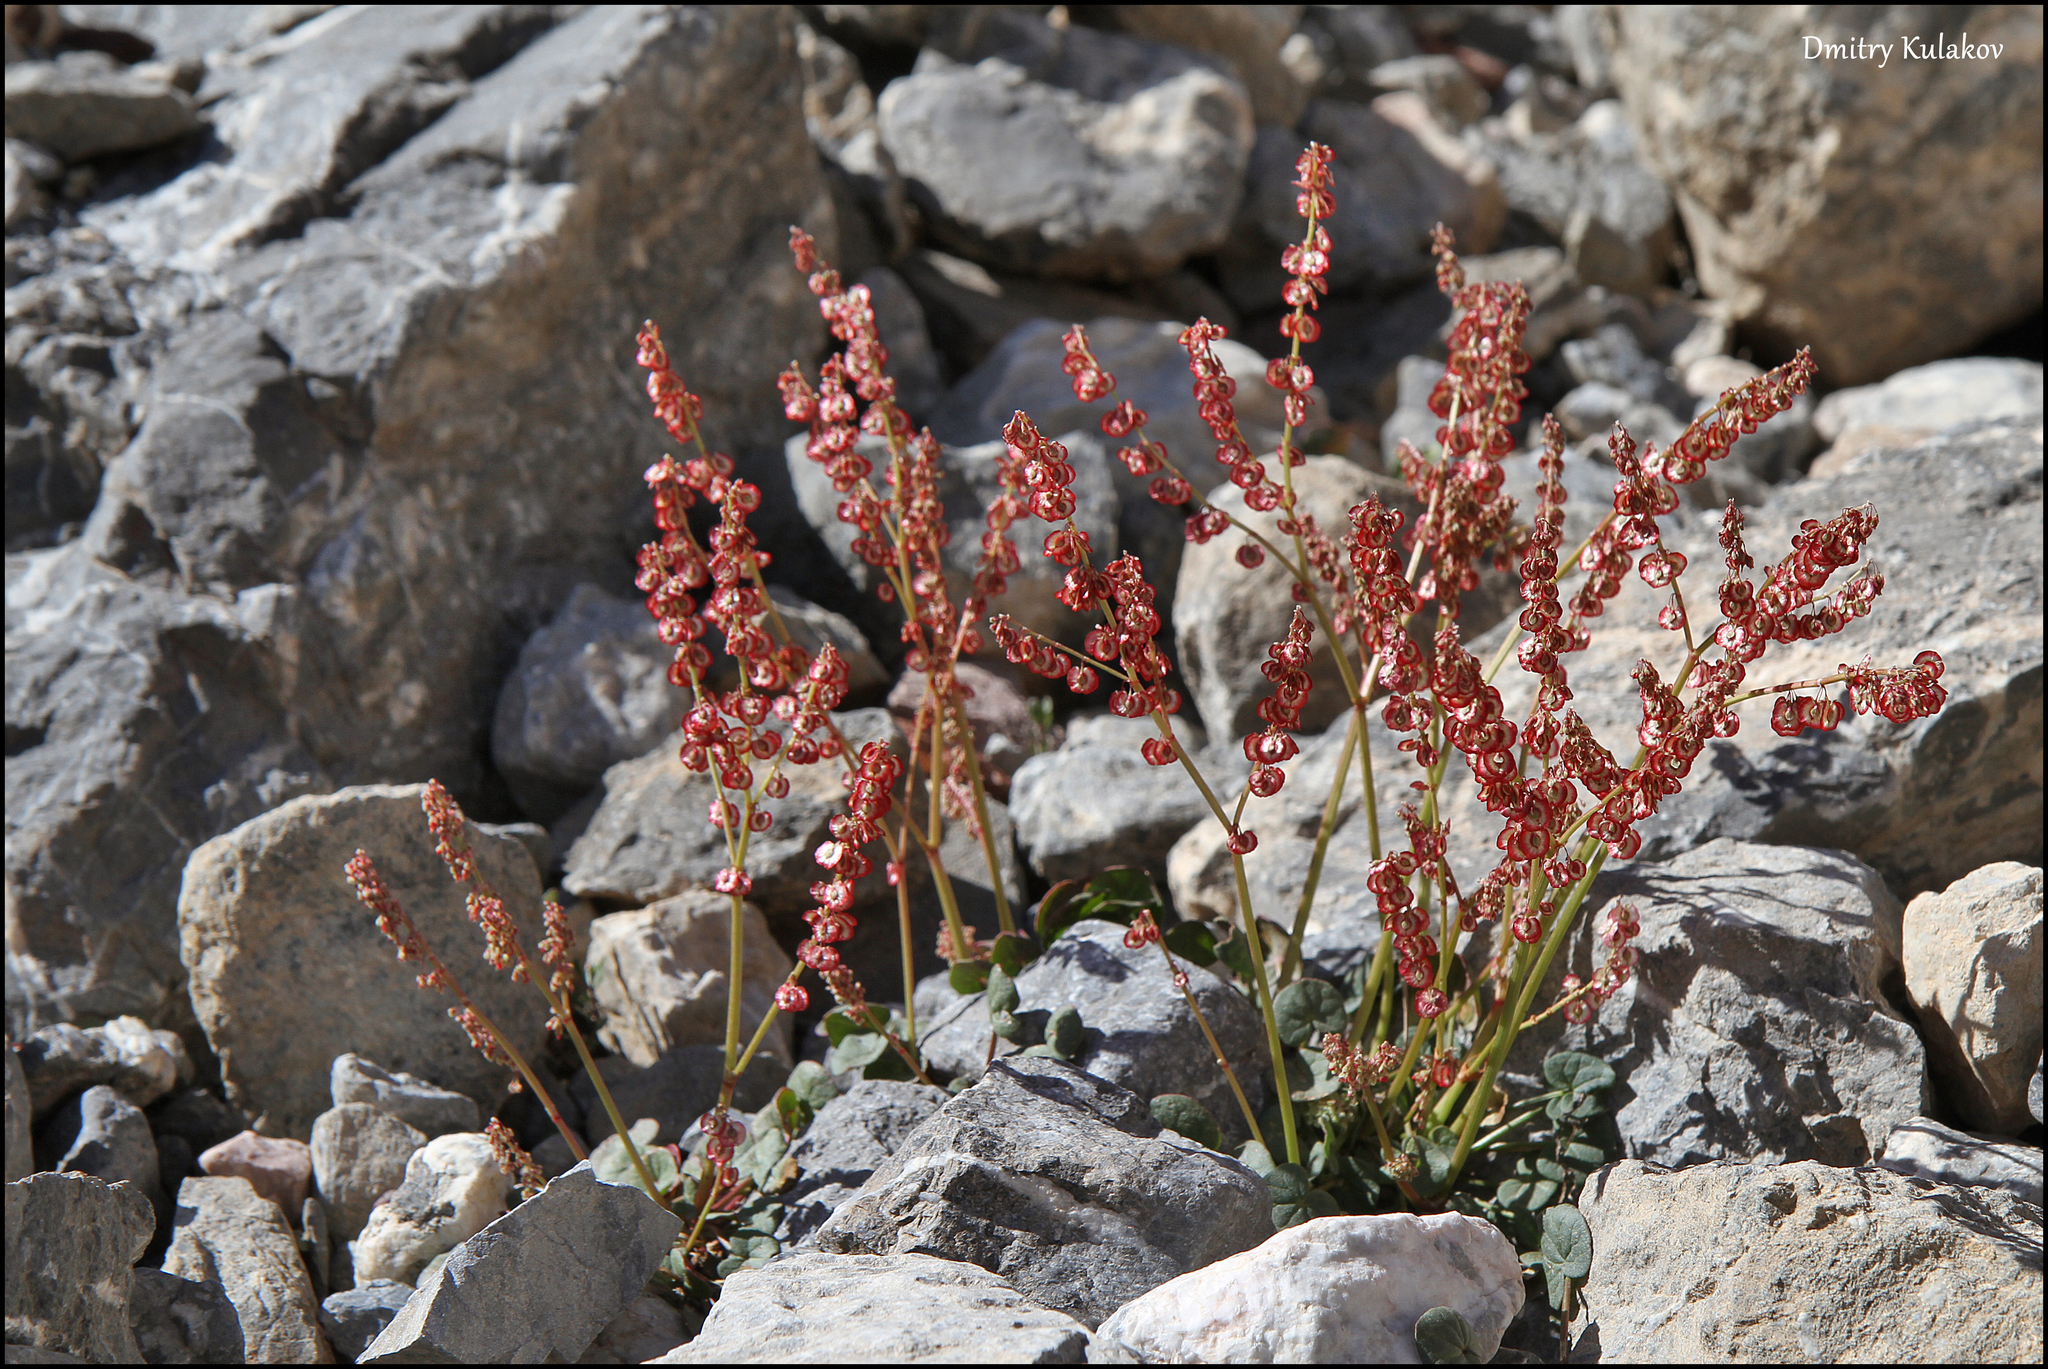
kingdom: Plantae
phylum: Tracheophyta
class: Magnoliopsida
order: Caryophyllales
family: Polygonaceae
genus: Oxyria
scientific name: Oxyria digyna
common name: Alpine mountain-sorrel
